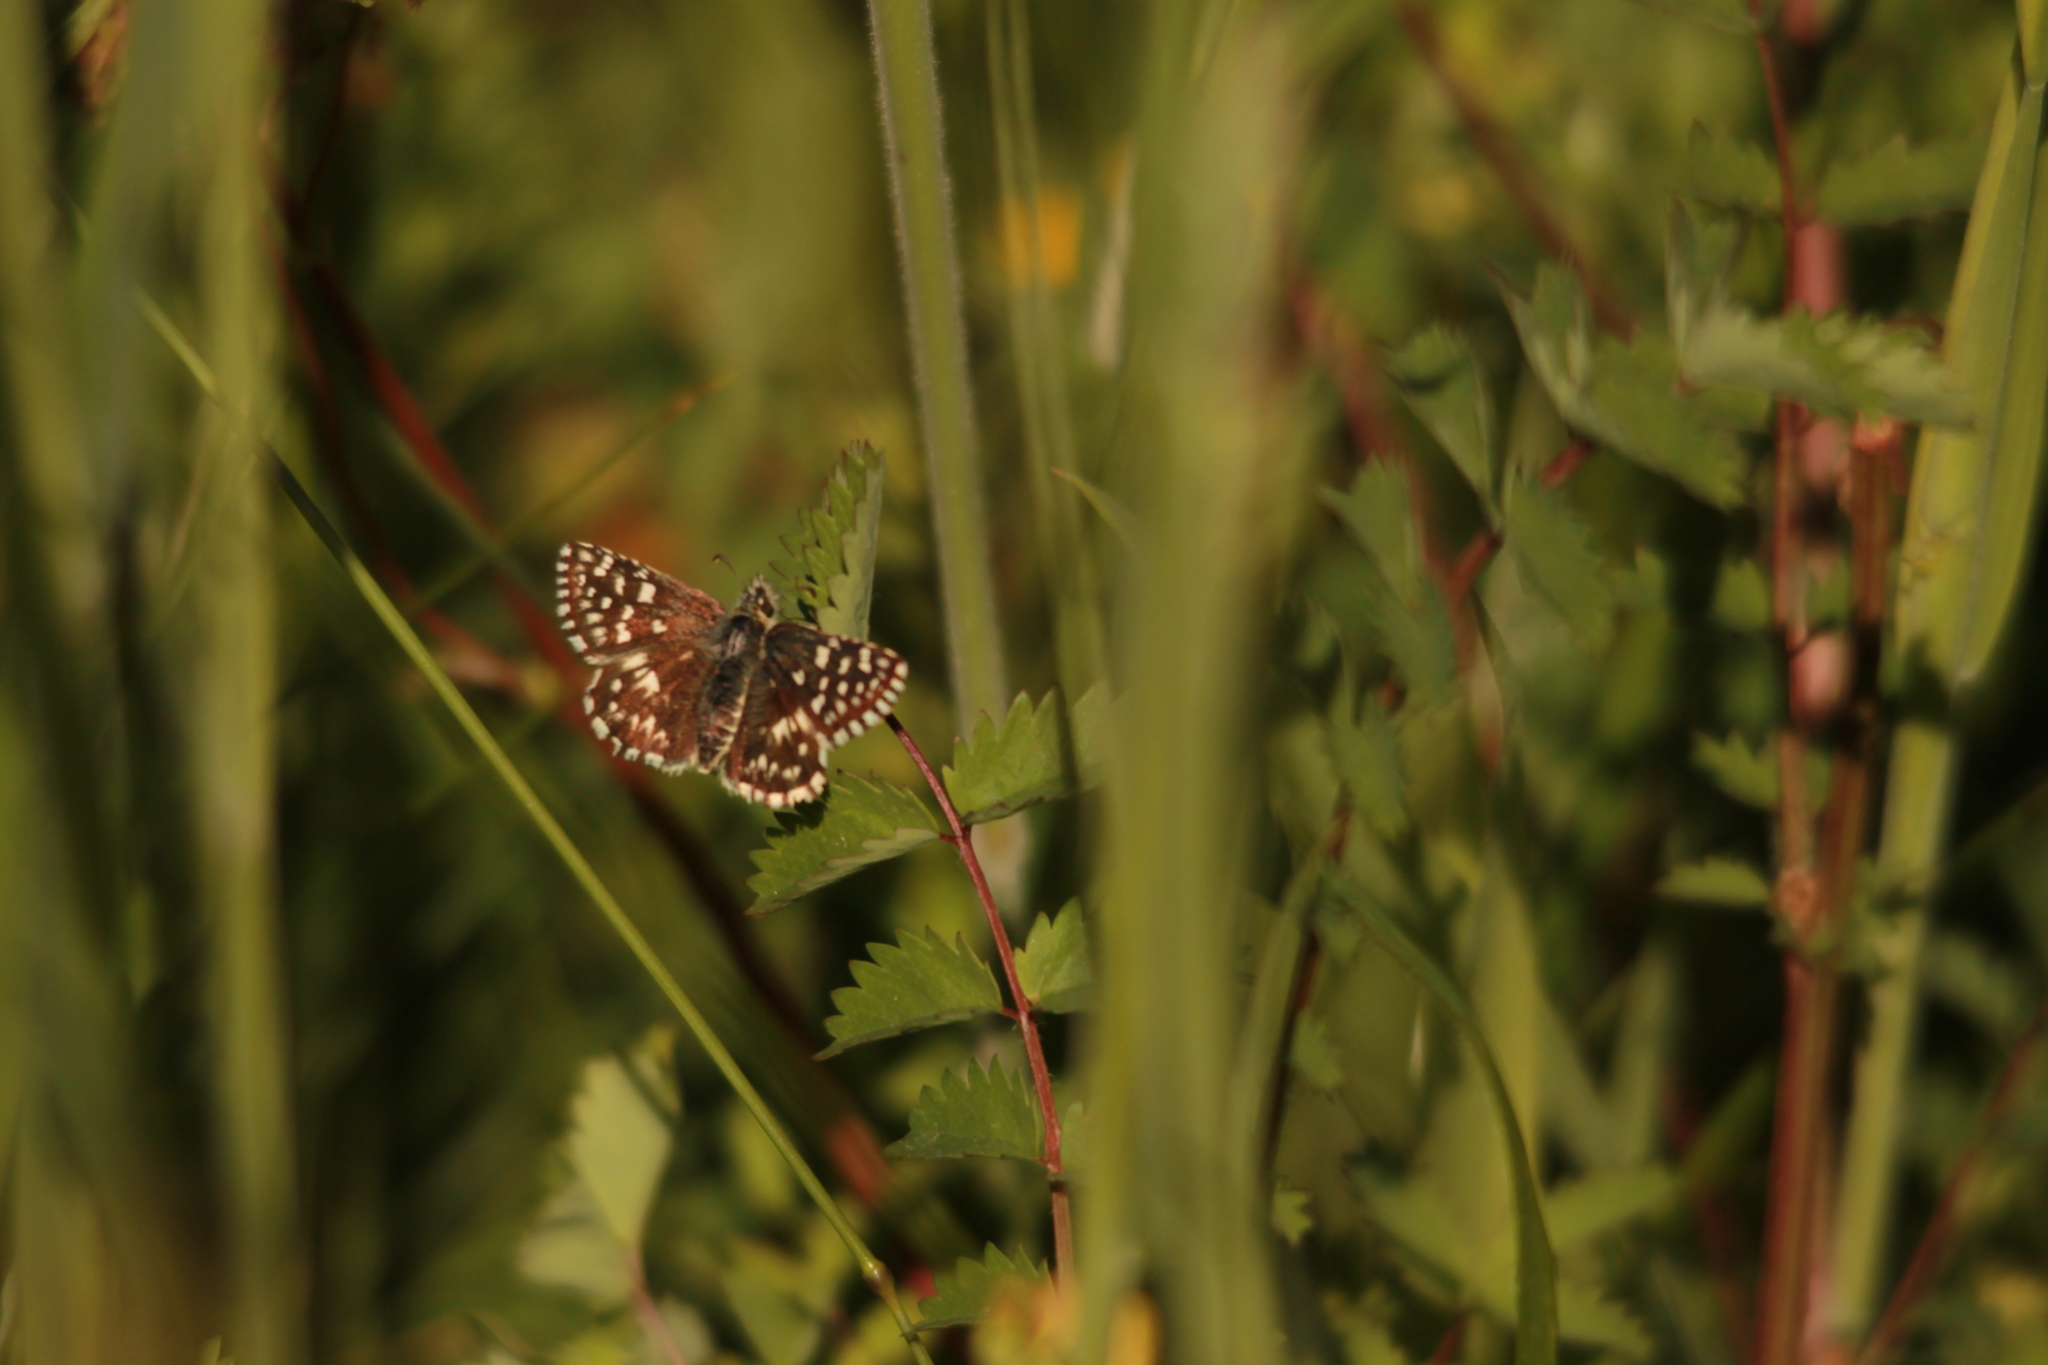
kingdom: Animalia
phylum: Arthropoda
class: Insecta
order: Lepidoptera
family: Hesperiidae
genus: Pyrgus
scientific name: Pyrgus malvae
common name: Grizzled skipper
